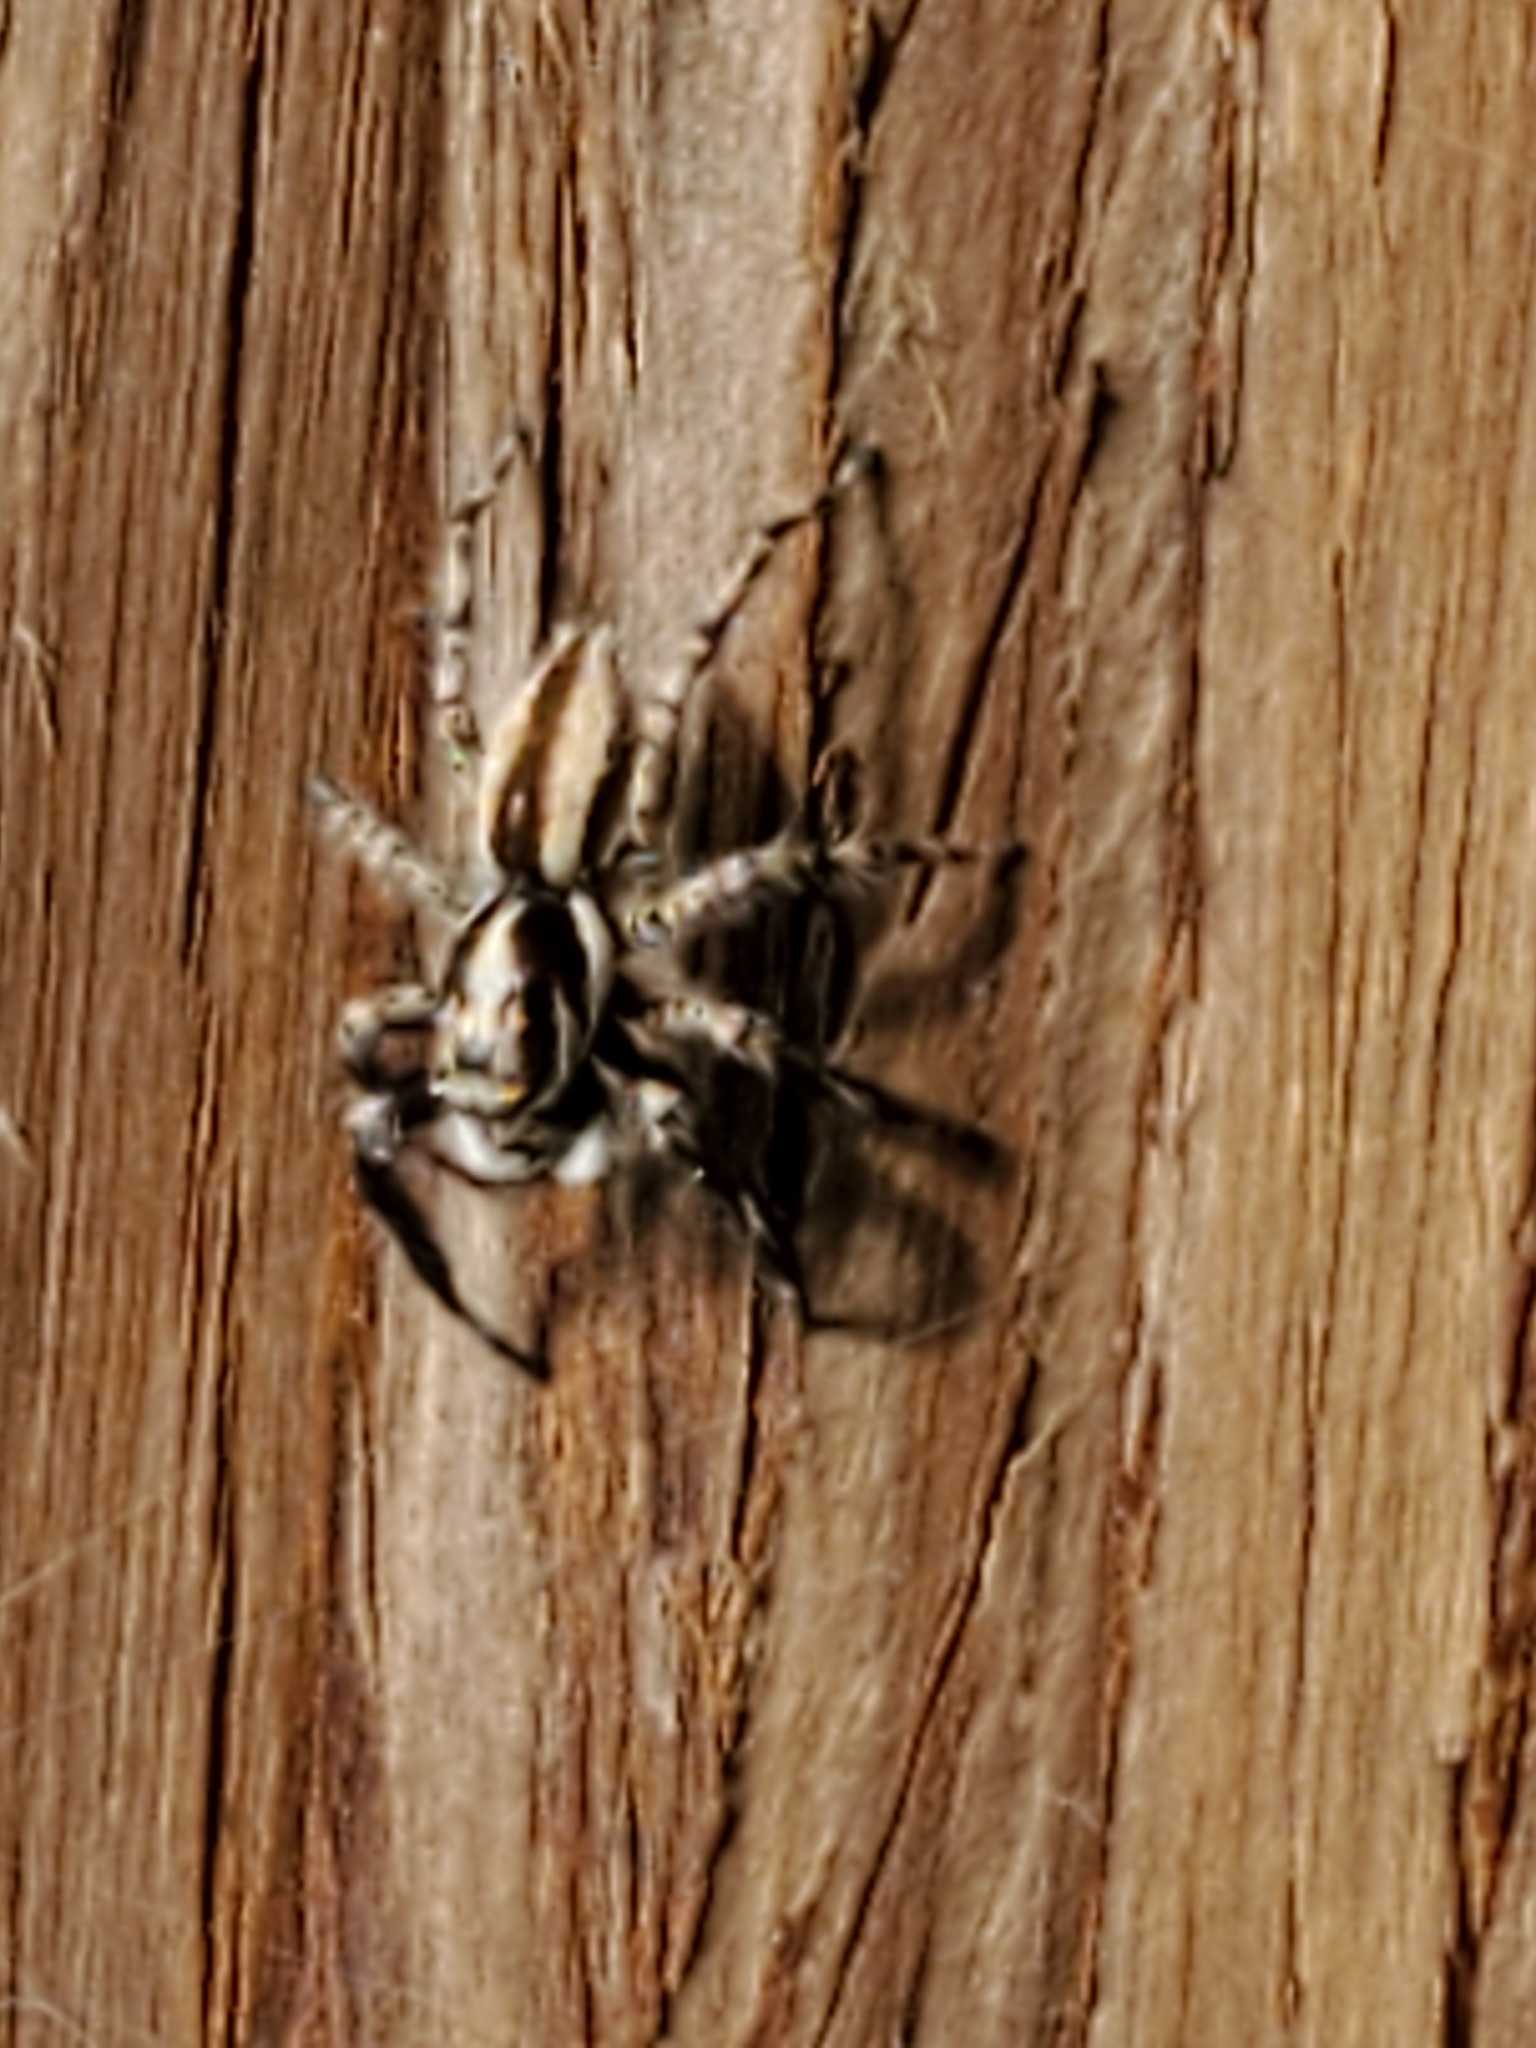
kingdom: Animalia
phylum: Arthropoda
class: Arachnida
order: Araneae
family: Salticidae
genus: Menemerus
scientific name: Menemerus bivittatus
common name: Gray wall jumper
